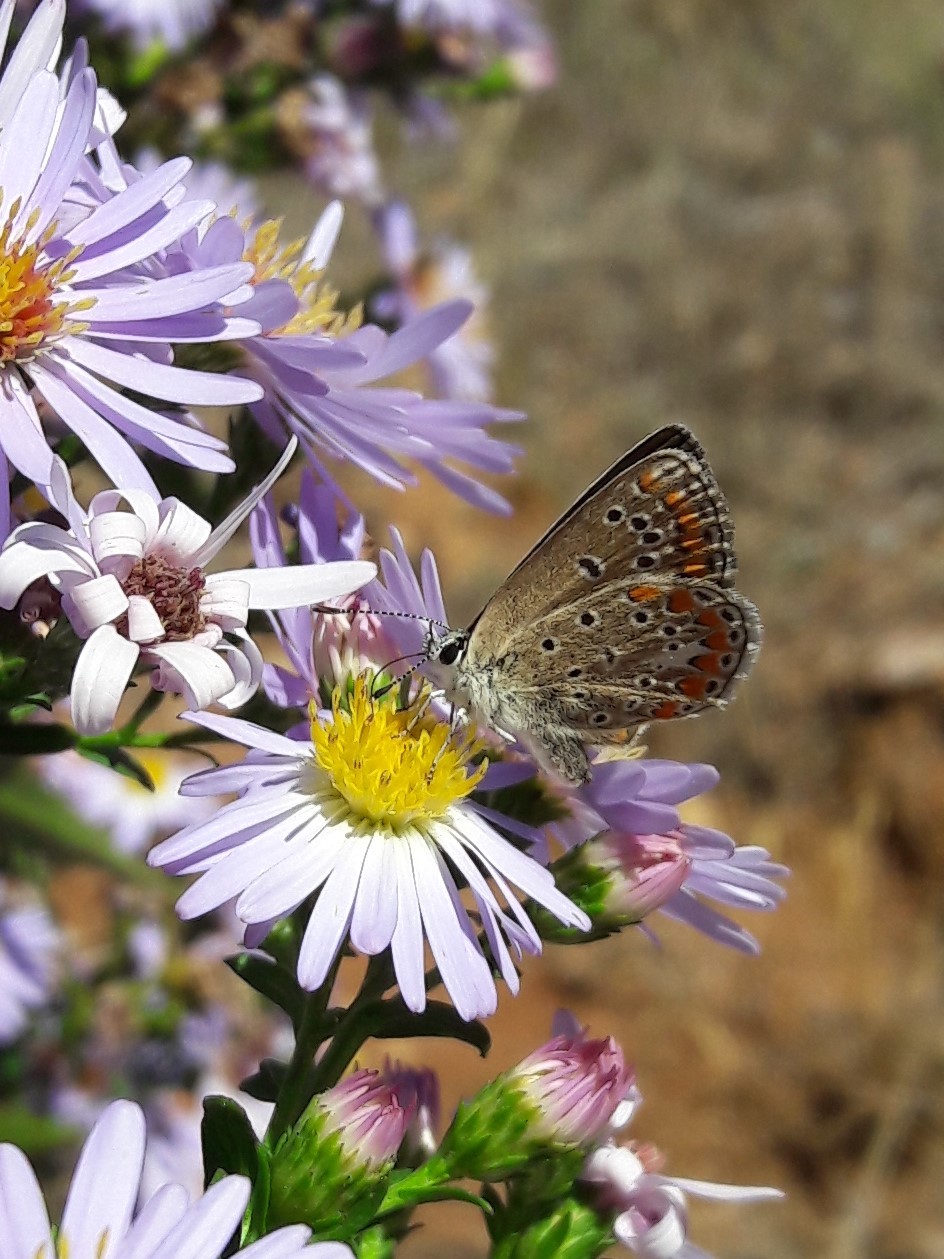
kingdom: Animalia
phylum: Arthropoda
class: Insecta
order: Lepidoptera
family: Lycaenidae
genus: Polyommatus
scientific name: Polyommatus thersites
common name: Chapman's blue
